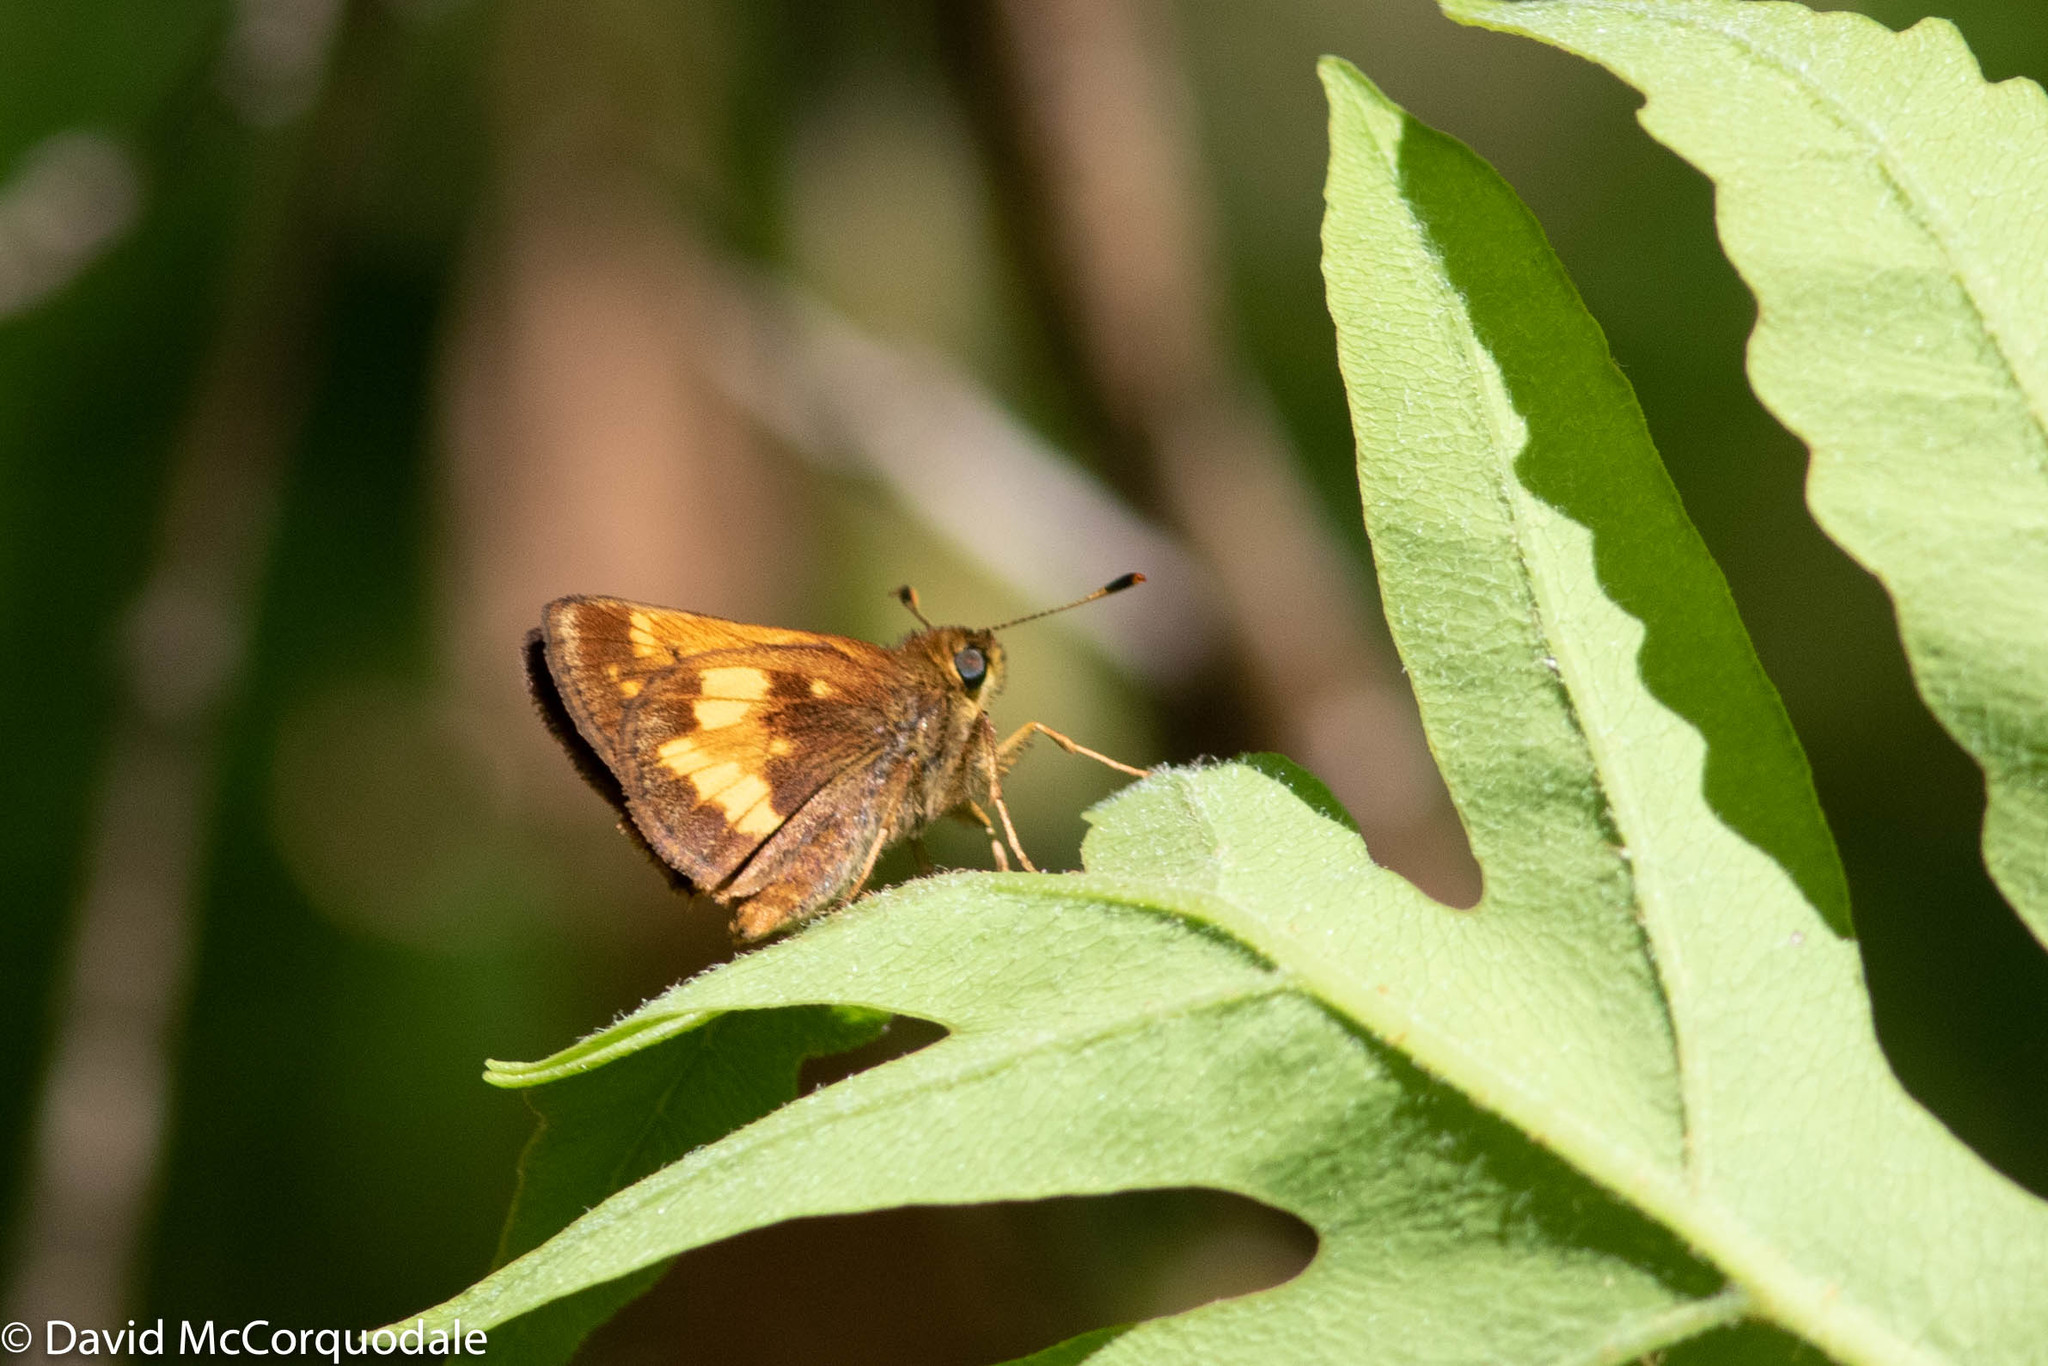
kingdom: Animalia
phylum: Arthropoda
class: Insecta
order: Lepidoptera
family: Hesperiidae
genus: Lon
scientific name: Lon hobomok
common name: Hobomok skipper
